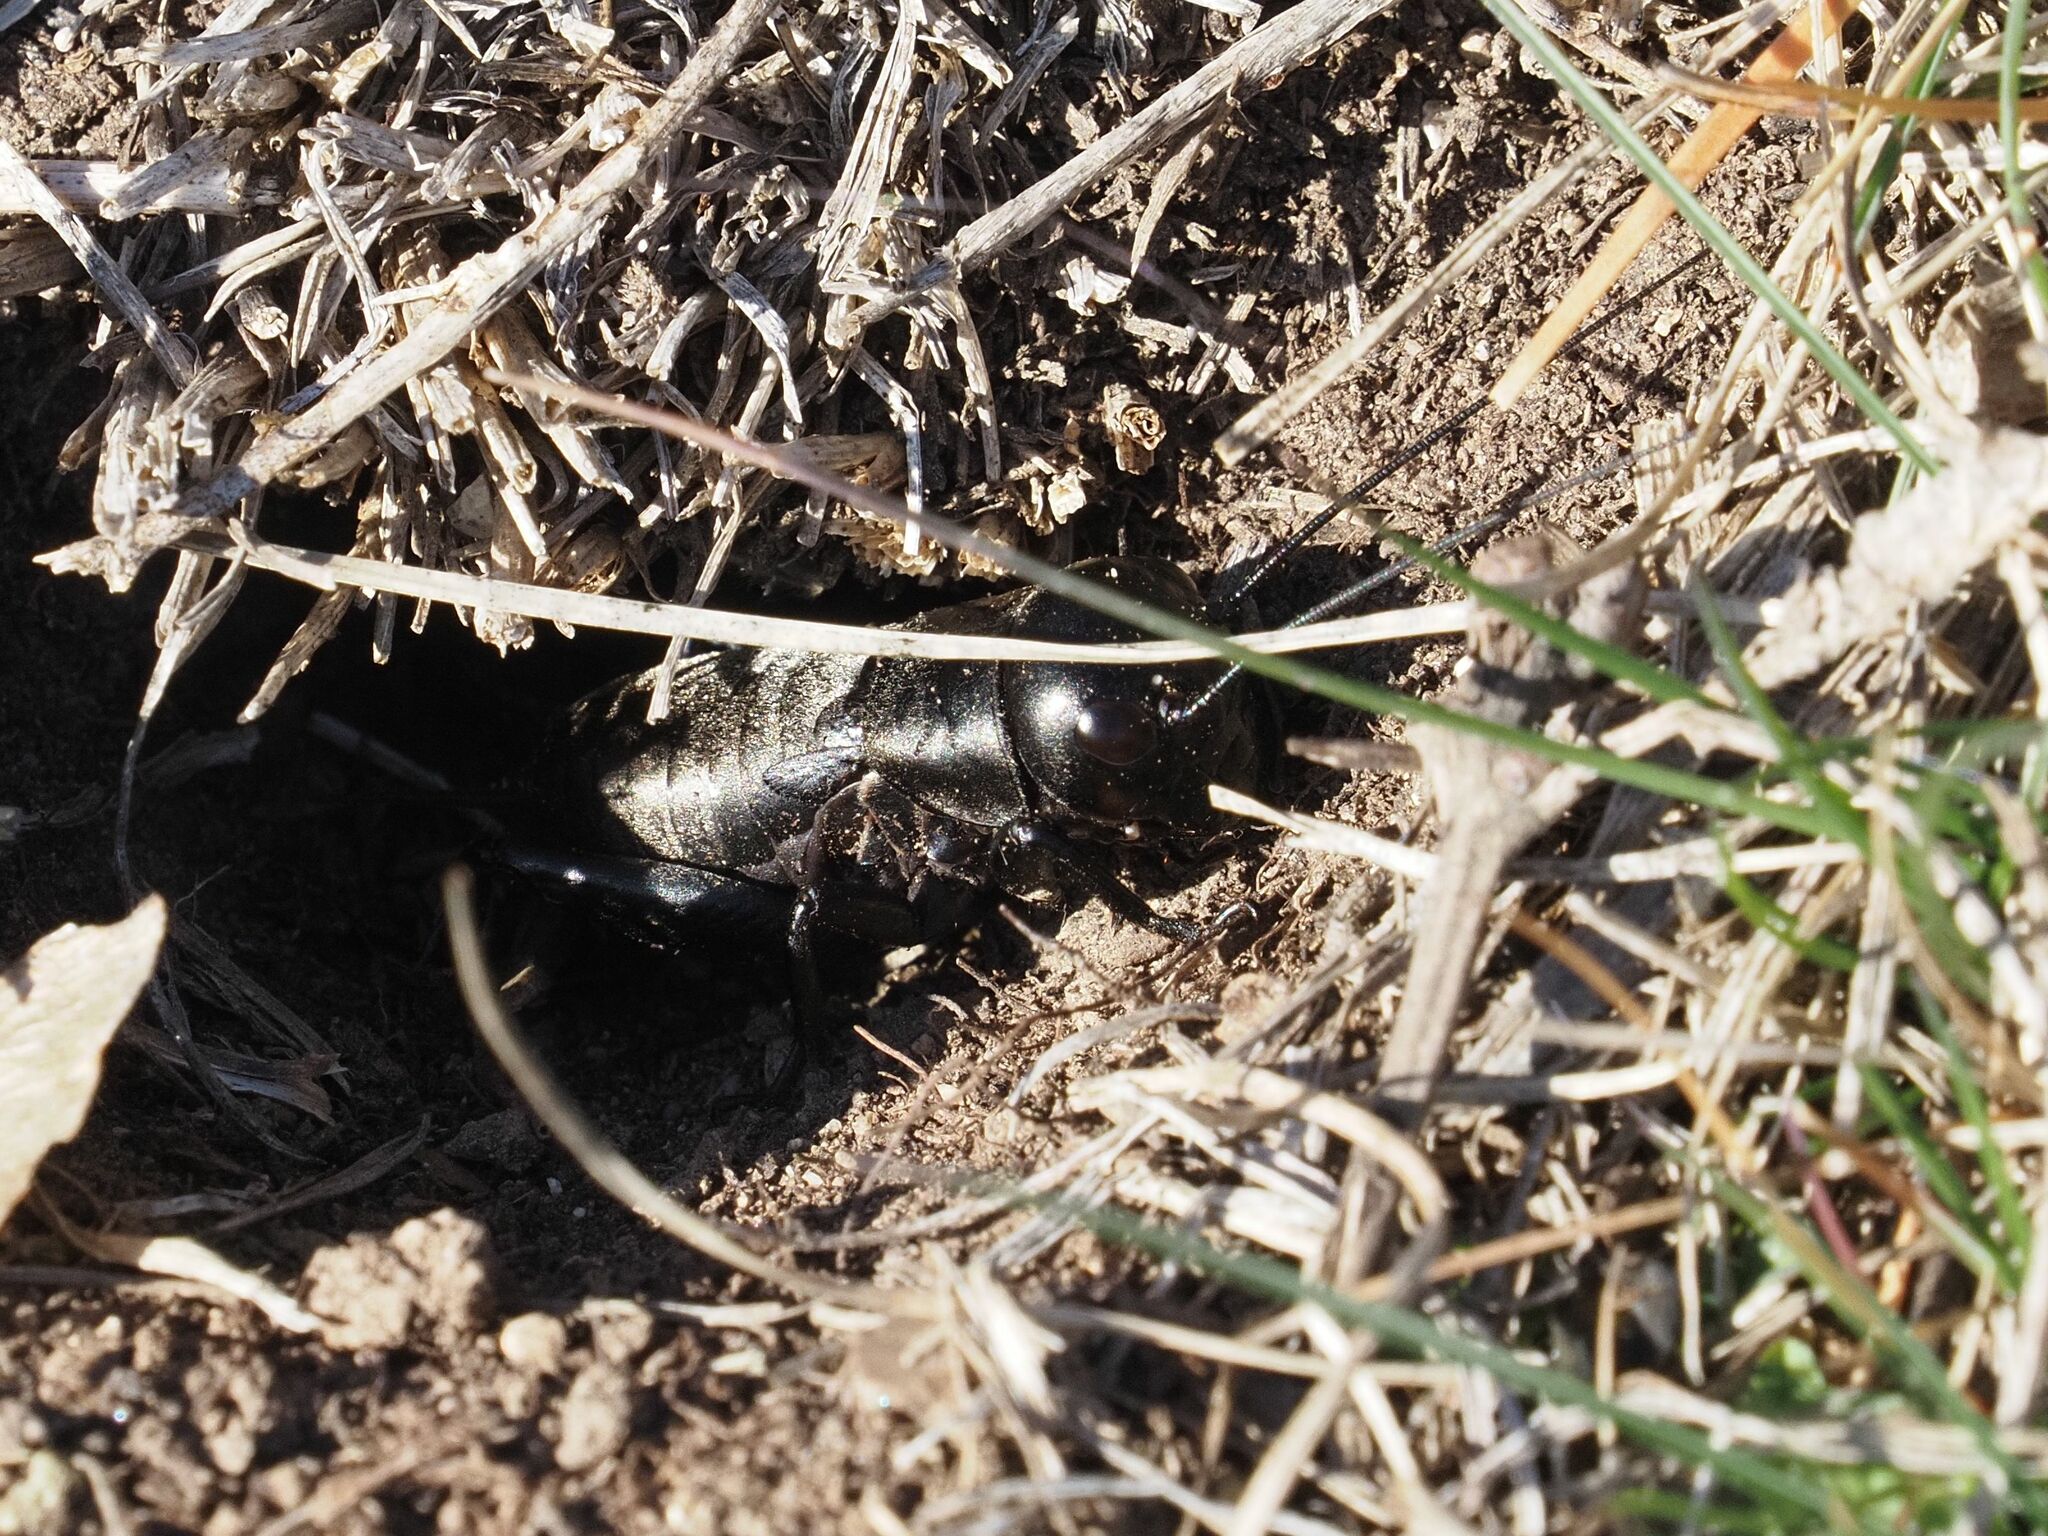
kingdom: Animalia
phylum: Arthropoda
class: Insecta
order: Orthoptera
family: Gryllidae
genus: Gryllus
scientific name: Gryllus campestris
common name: Field cricket
